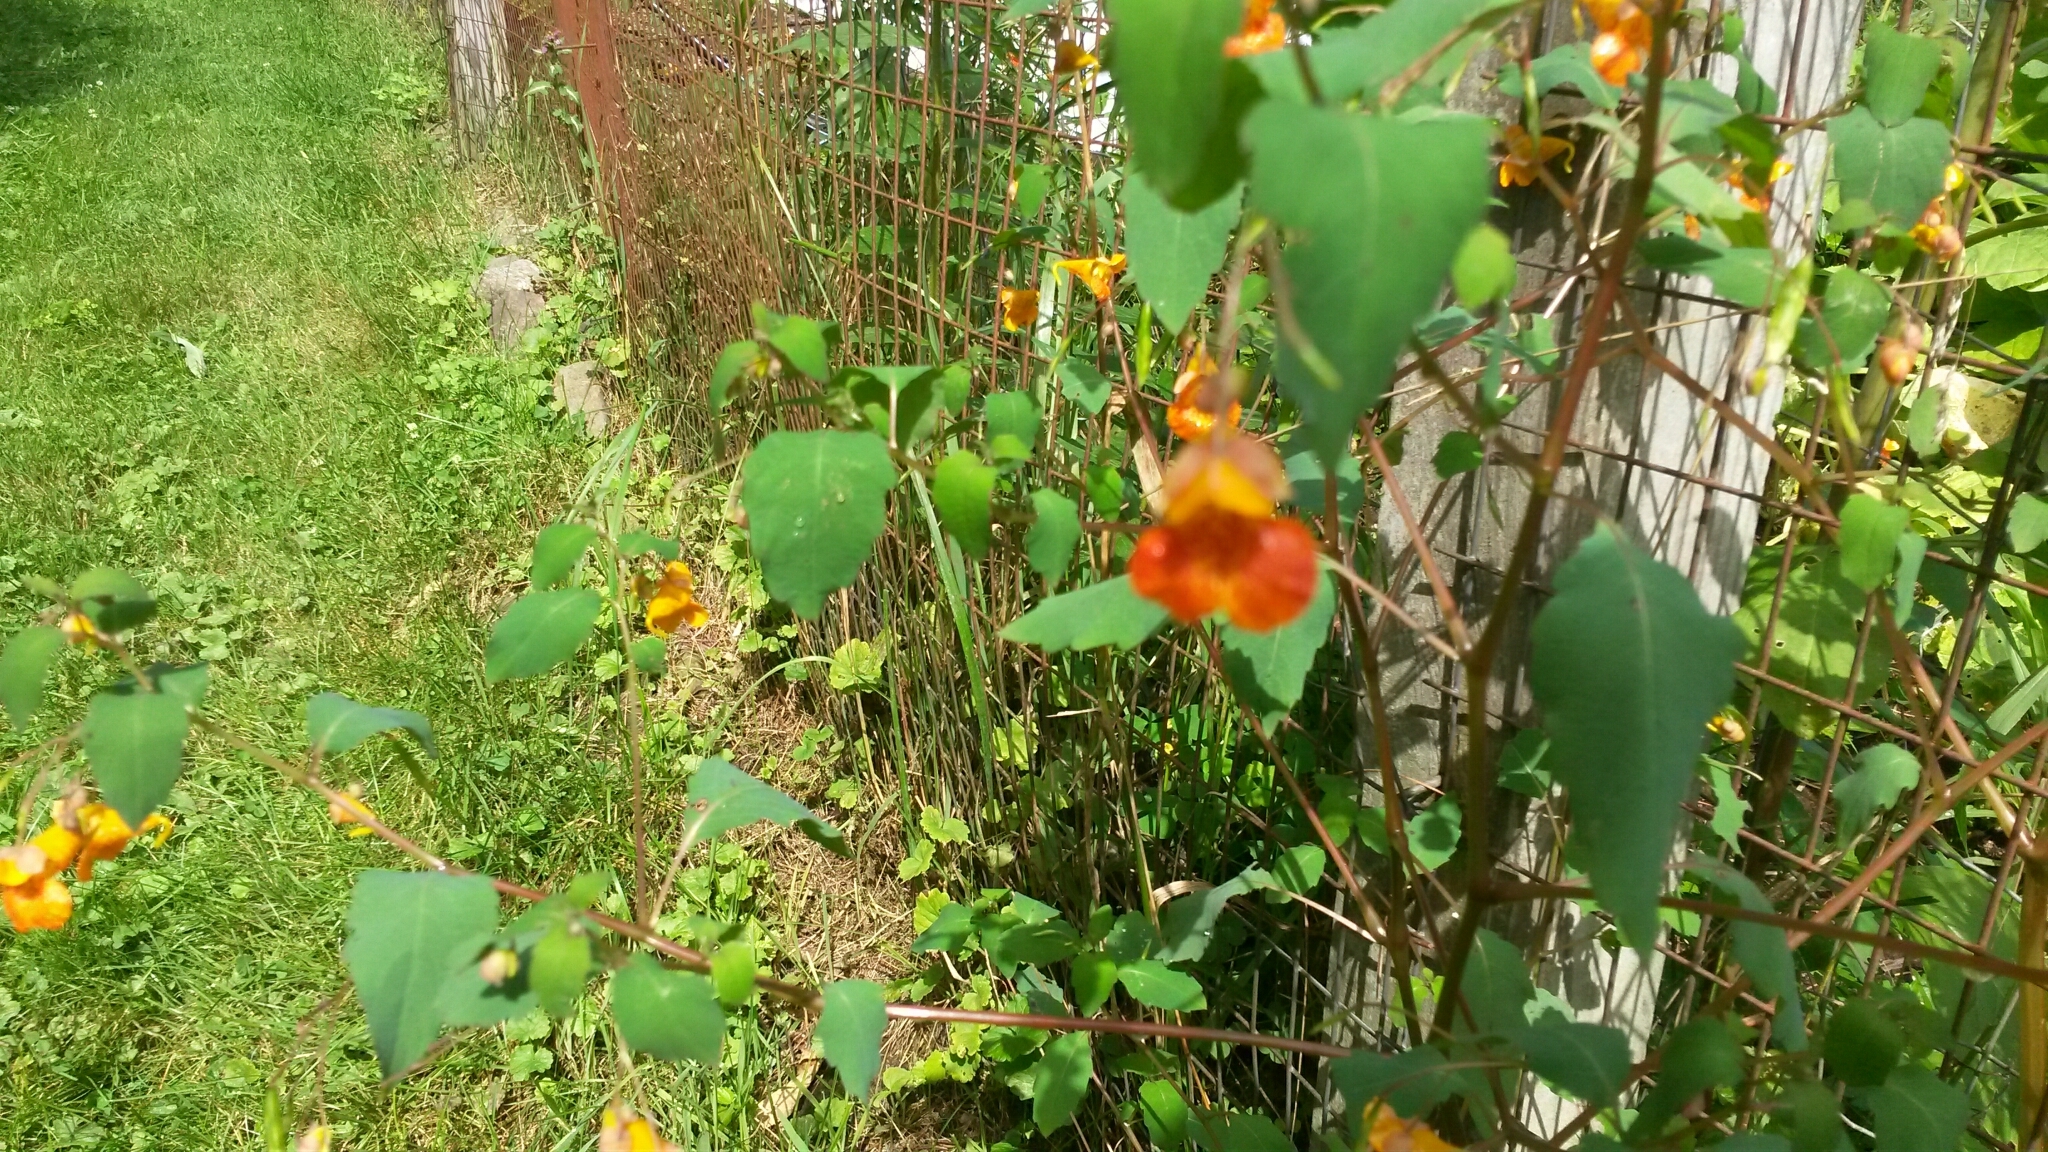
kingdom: Plantae
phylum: Tracheophyta
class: Magnoliopsida
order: Ericales
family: Balsaminaceae
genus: Impatiens
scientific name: Impatiens capensis
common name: Orange balsam
